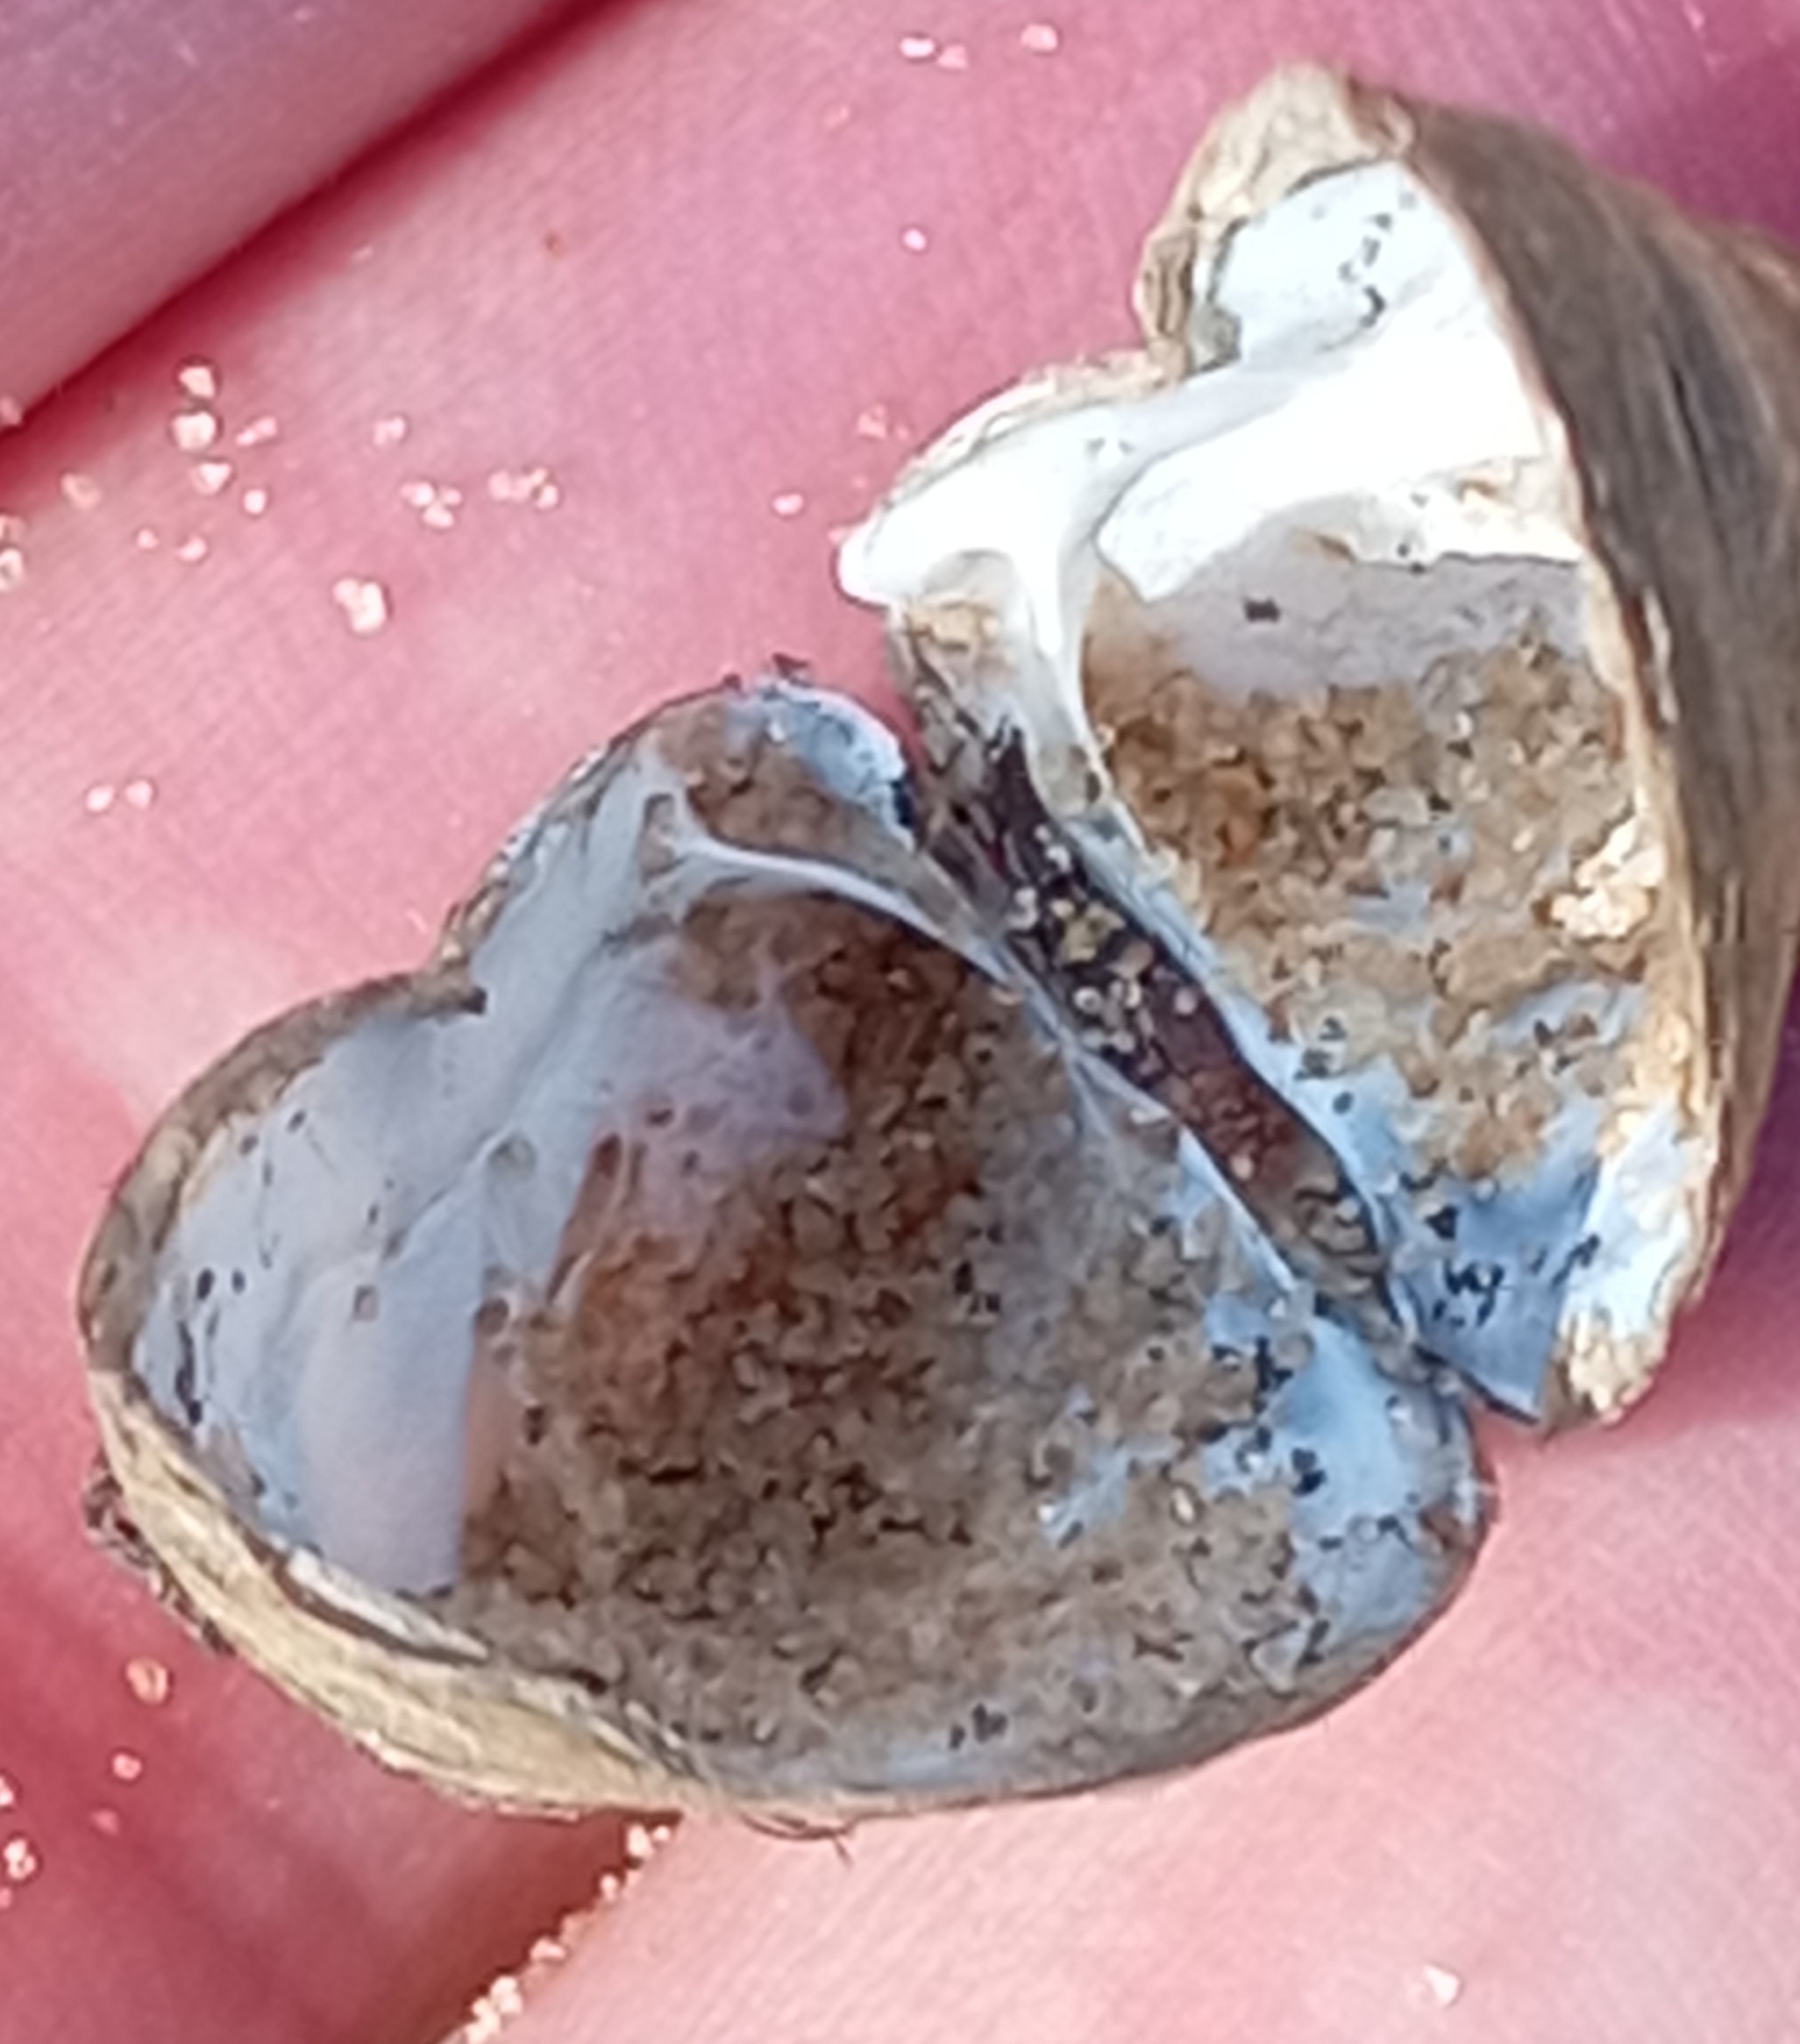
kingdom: Animalia
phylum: Mollusca
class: Bivalvia
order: Myida
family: Dreissenidae
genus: Dreissena
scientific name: Dreissena polymorpha
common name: Zebra mussel
